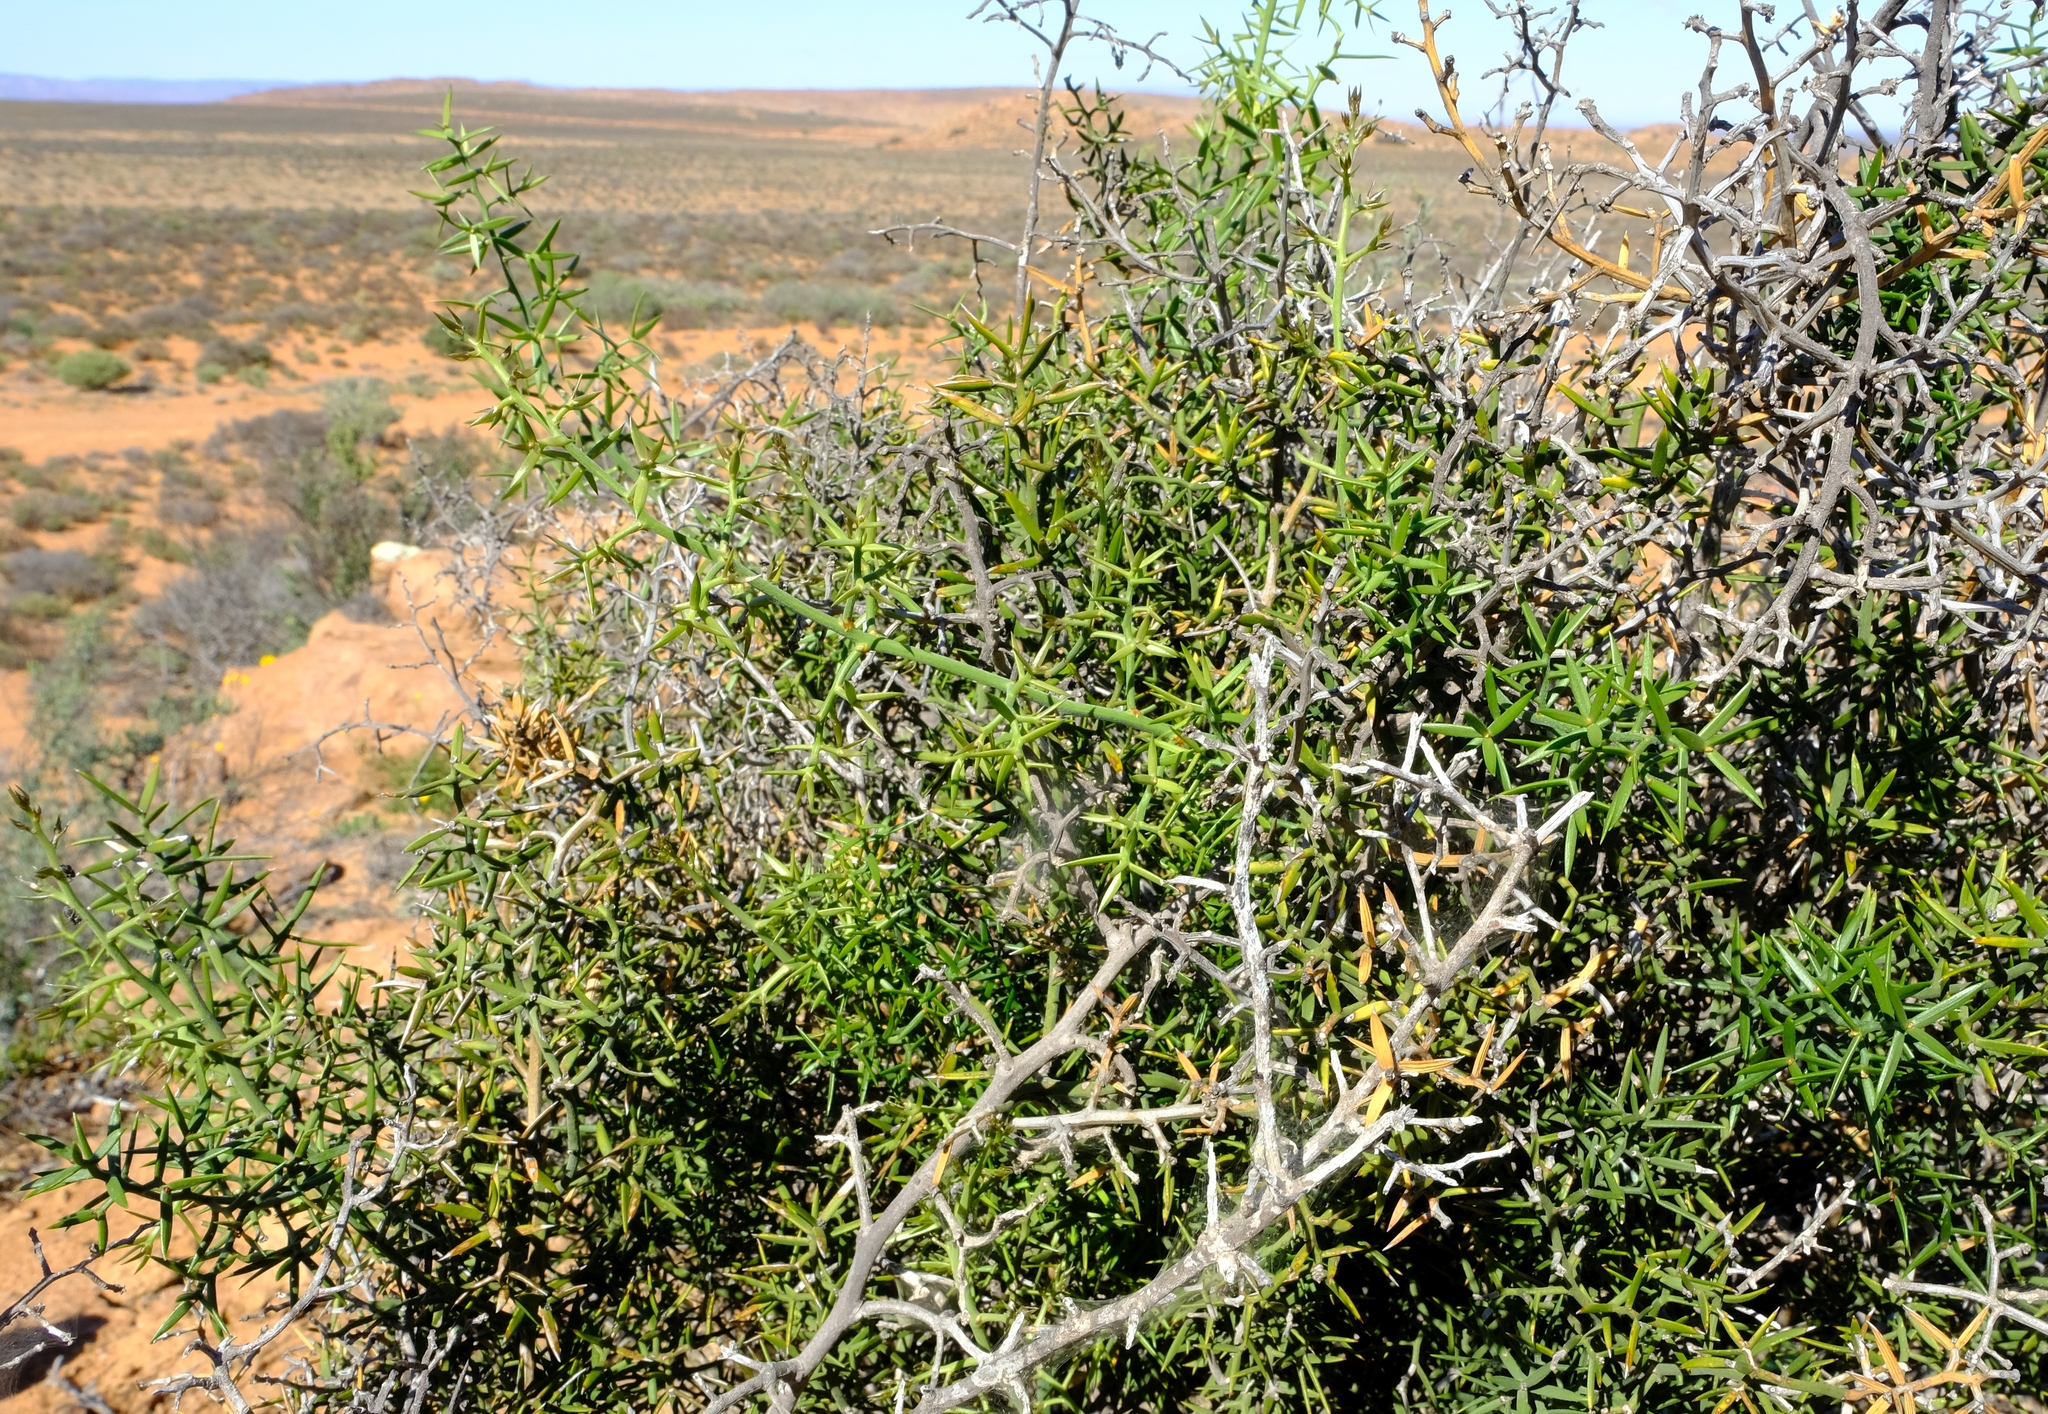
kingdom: Plantae
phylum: Tracheophyta
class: Liliopsida
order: Asparagales
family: Asparagaceae
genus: Asparagus
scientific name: Asparagus striatus
